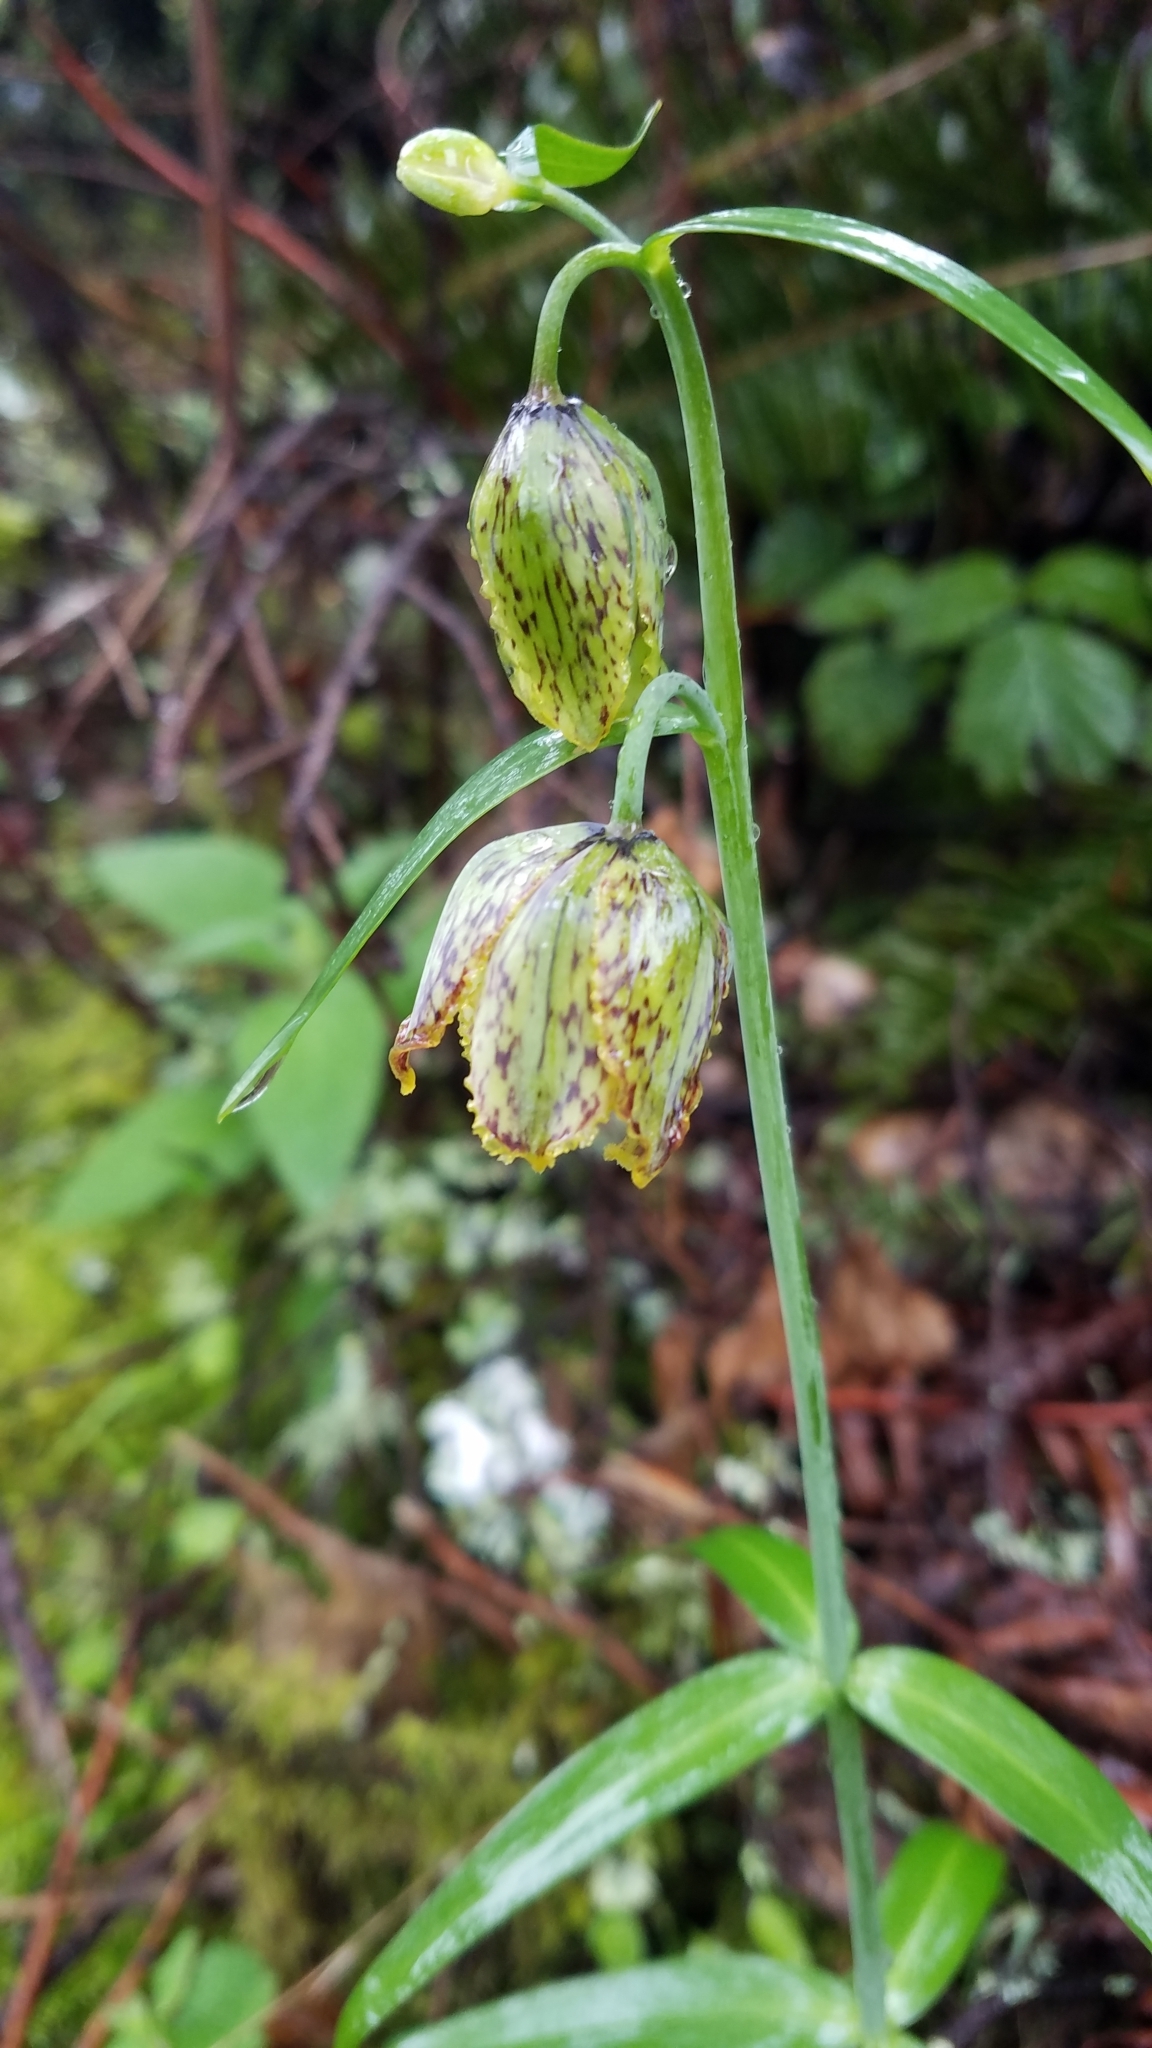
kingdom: Plantae
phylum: Tracheophyta
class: Liliopsida
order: Liliales
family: Liliaceae
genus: Fritillaria
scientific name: Fritillaria affinis
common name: Ojai fritillary
